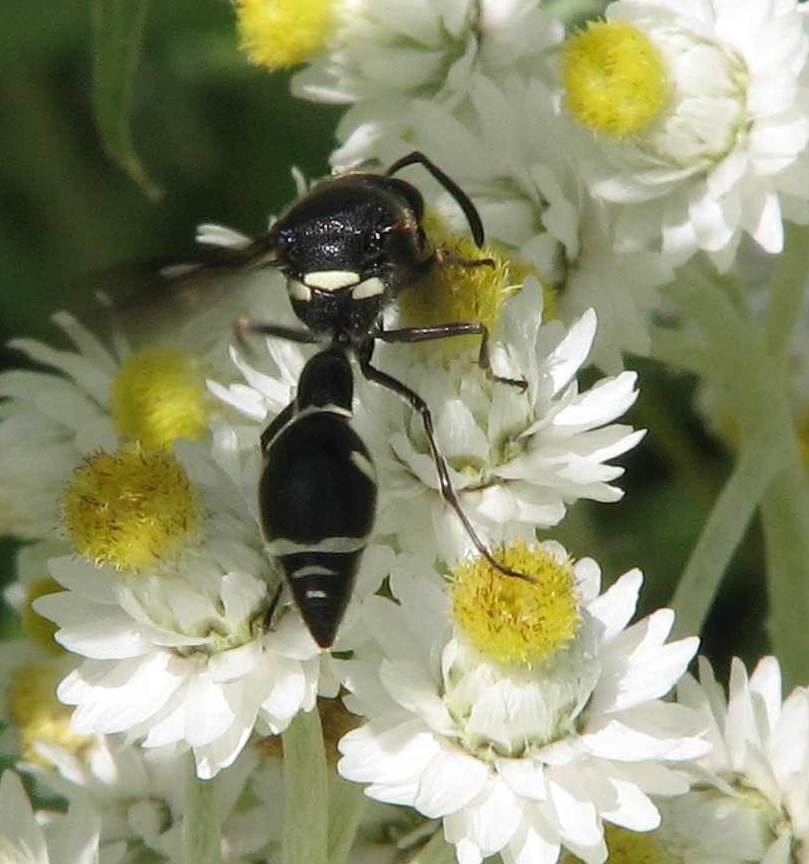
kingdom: Animalia
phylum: Arthropoda
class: Insecta
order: Hymenoptera
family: Vespidae
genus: Eumenes
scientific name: Eumenes fraternus
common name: Fraternal potter wasp
